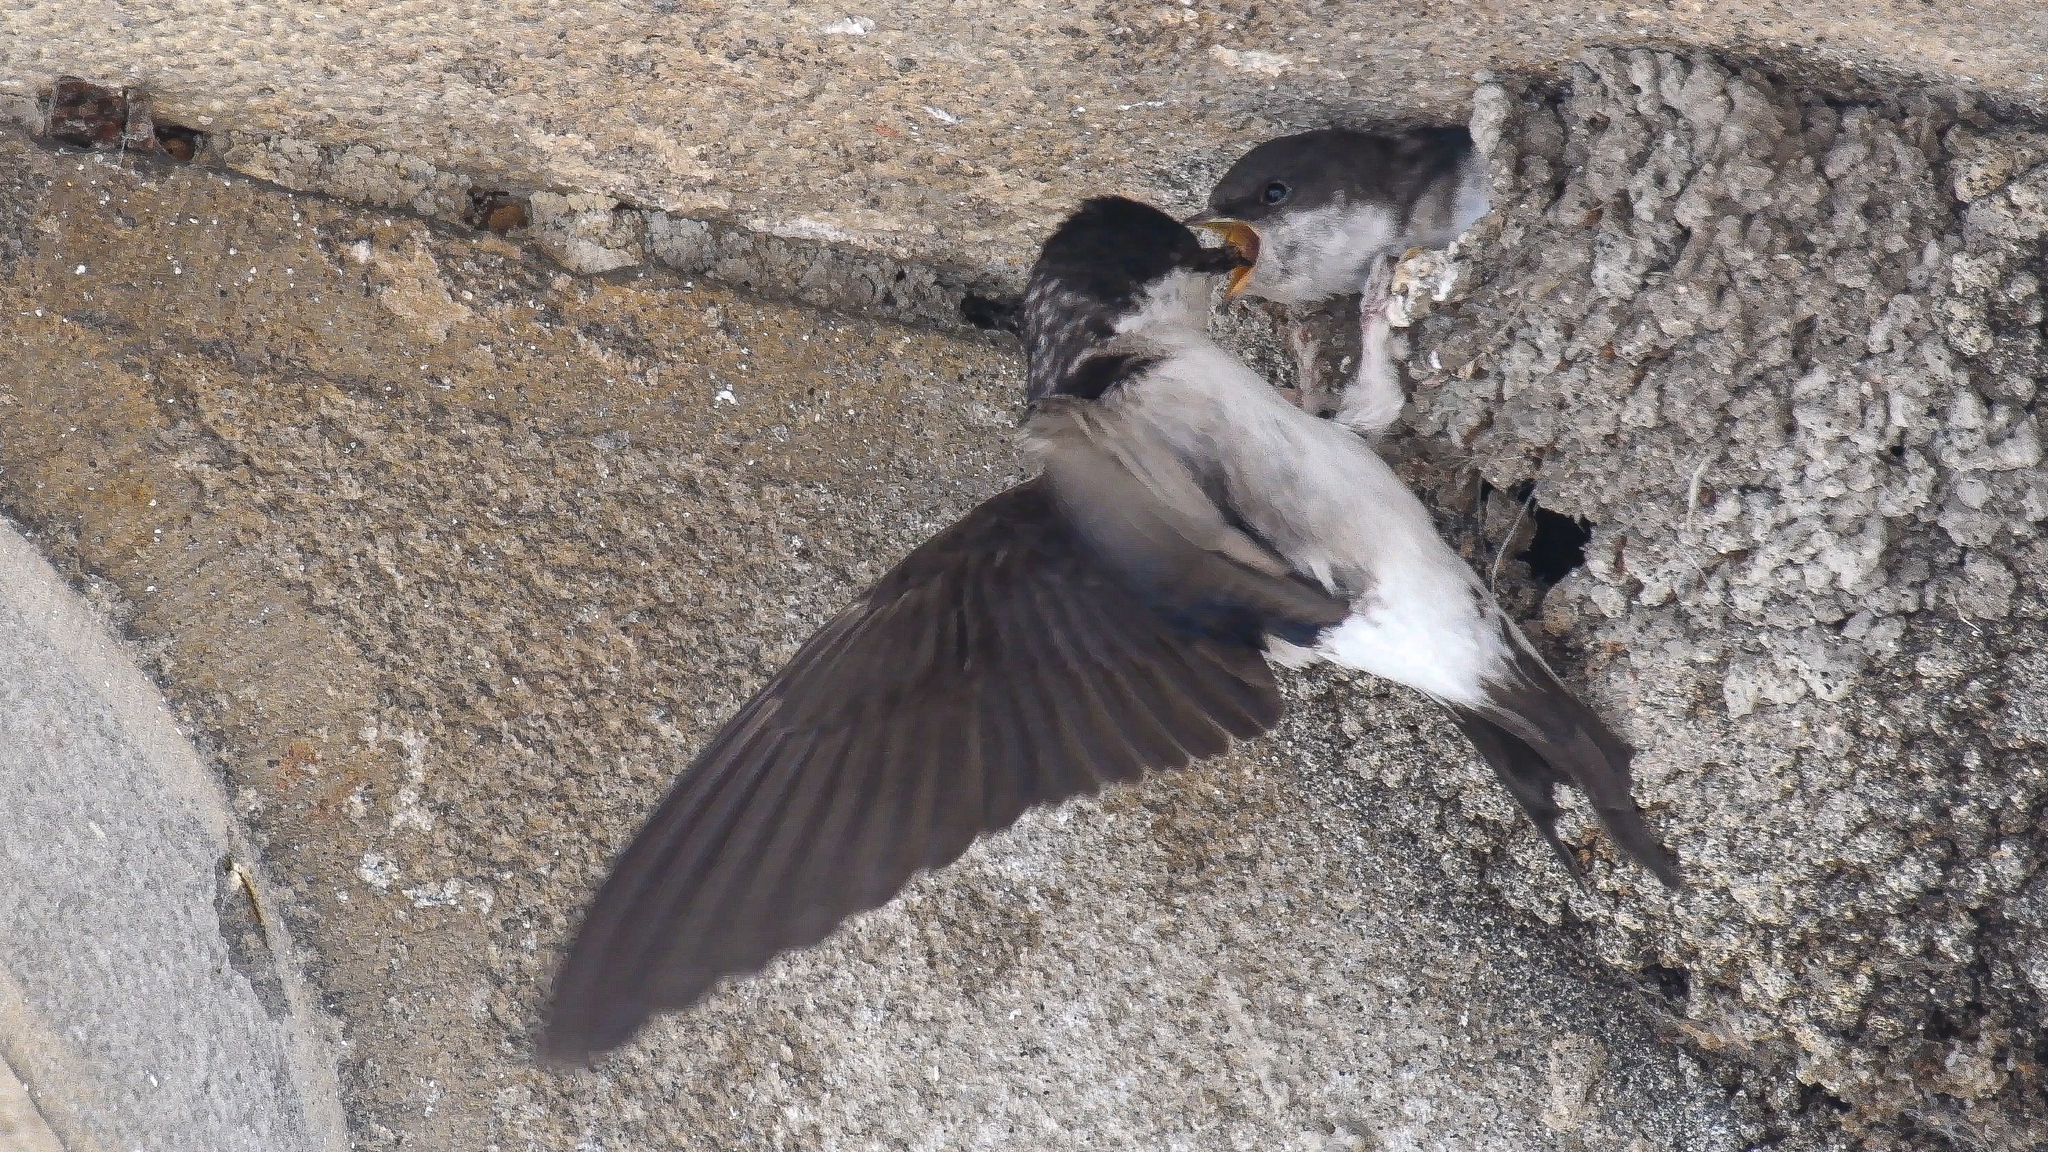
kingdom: Animalia
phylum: Chordata
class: Aves
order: Passeriformes
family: Hirundinidae
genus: Delichon
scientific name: Delichon urbicum
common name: Common house martin
